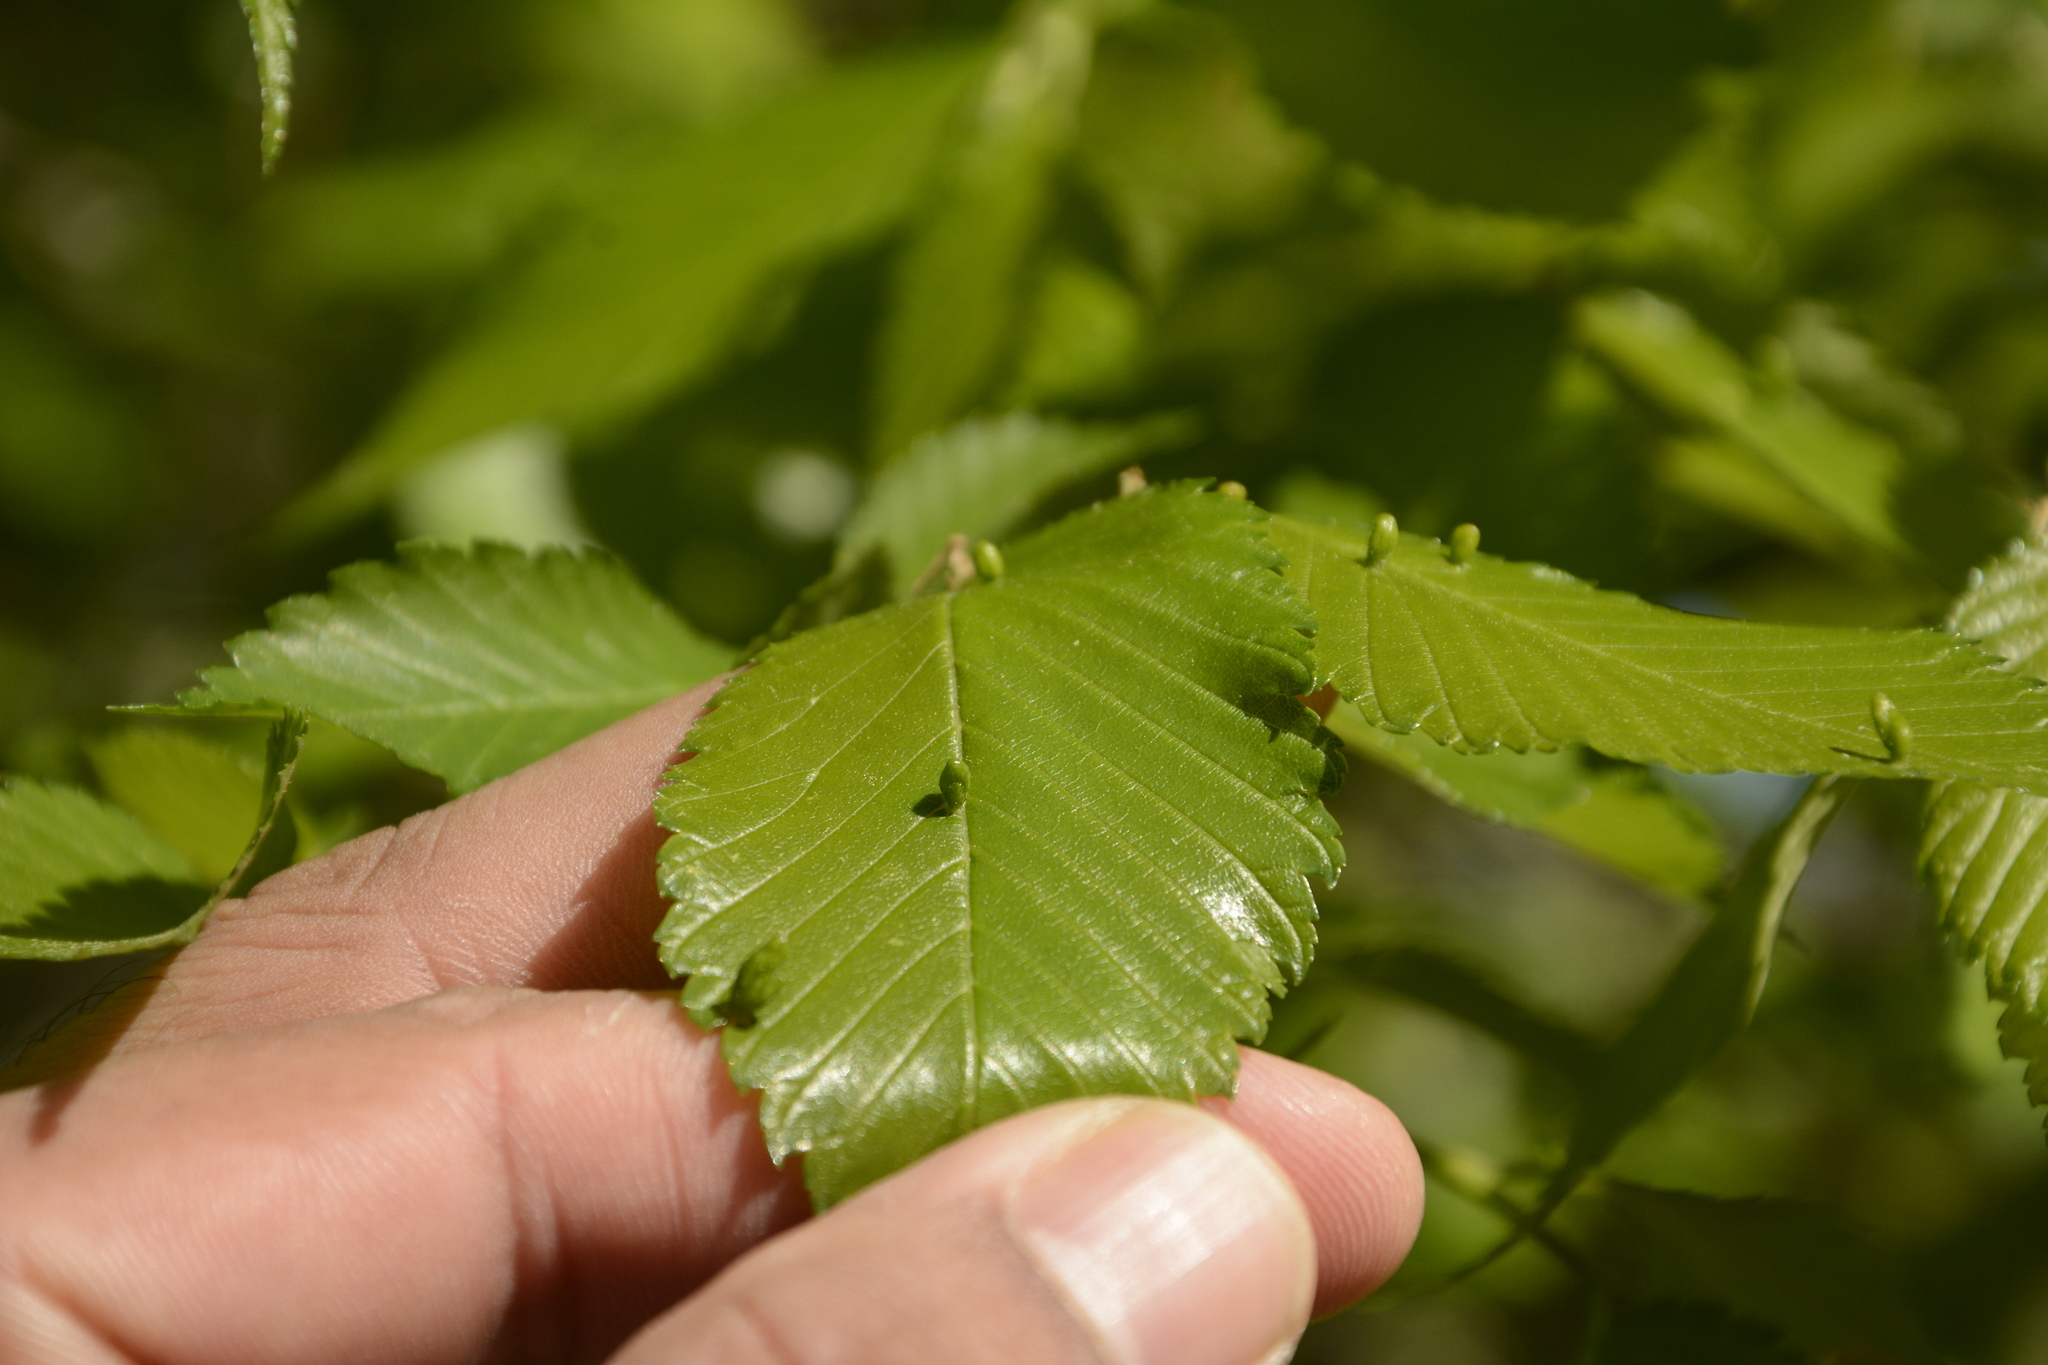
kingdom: Plantae
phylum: Tracheophyta
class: Magnoliopsida
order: Rosales
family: Ulmaceae
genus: Ulmus
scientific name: Ulmus americana
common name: American elm
